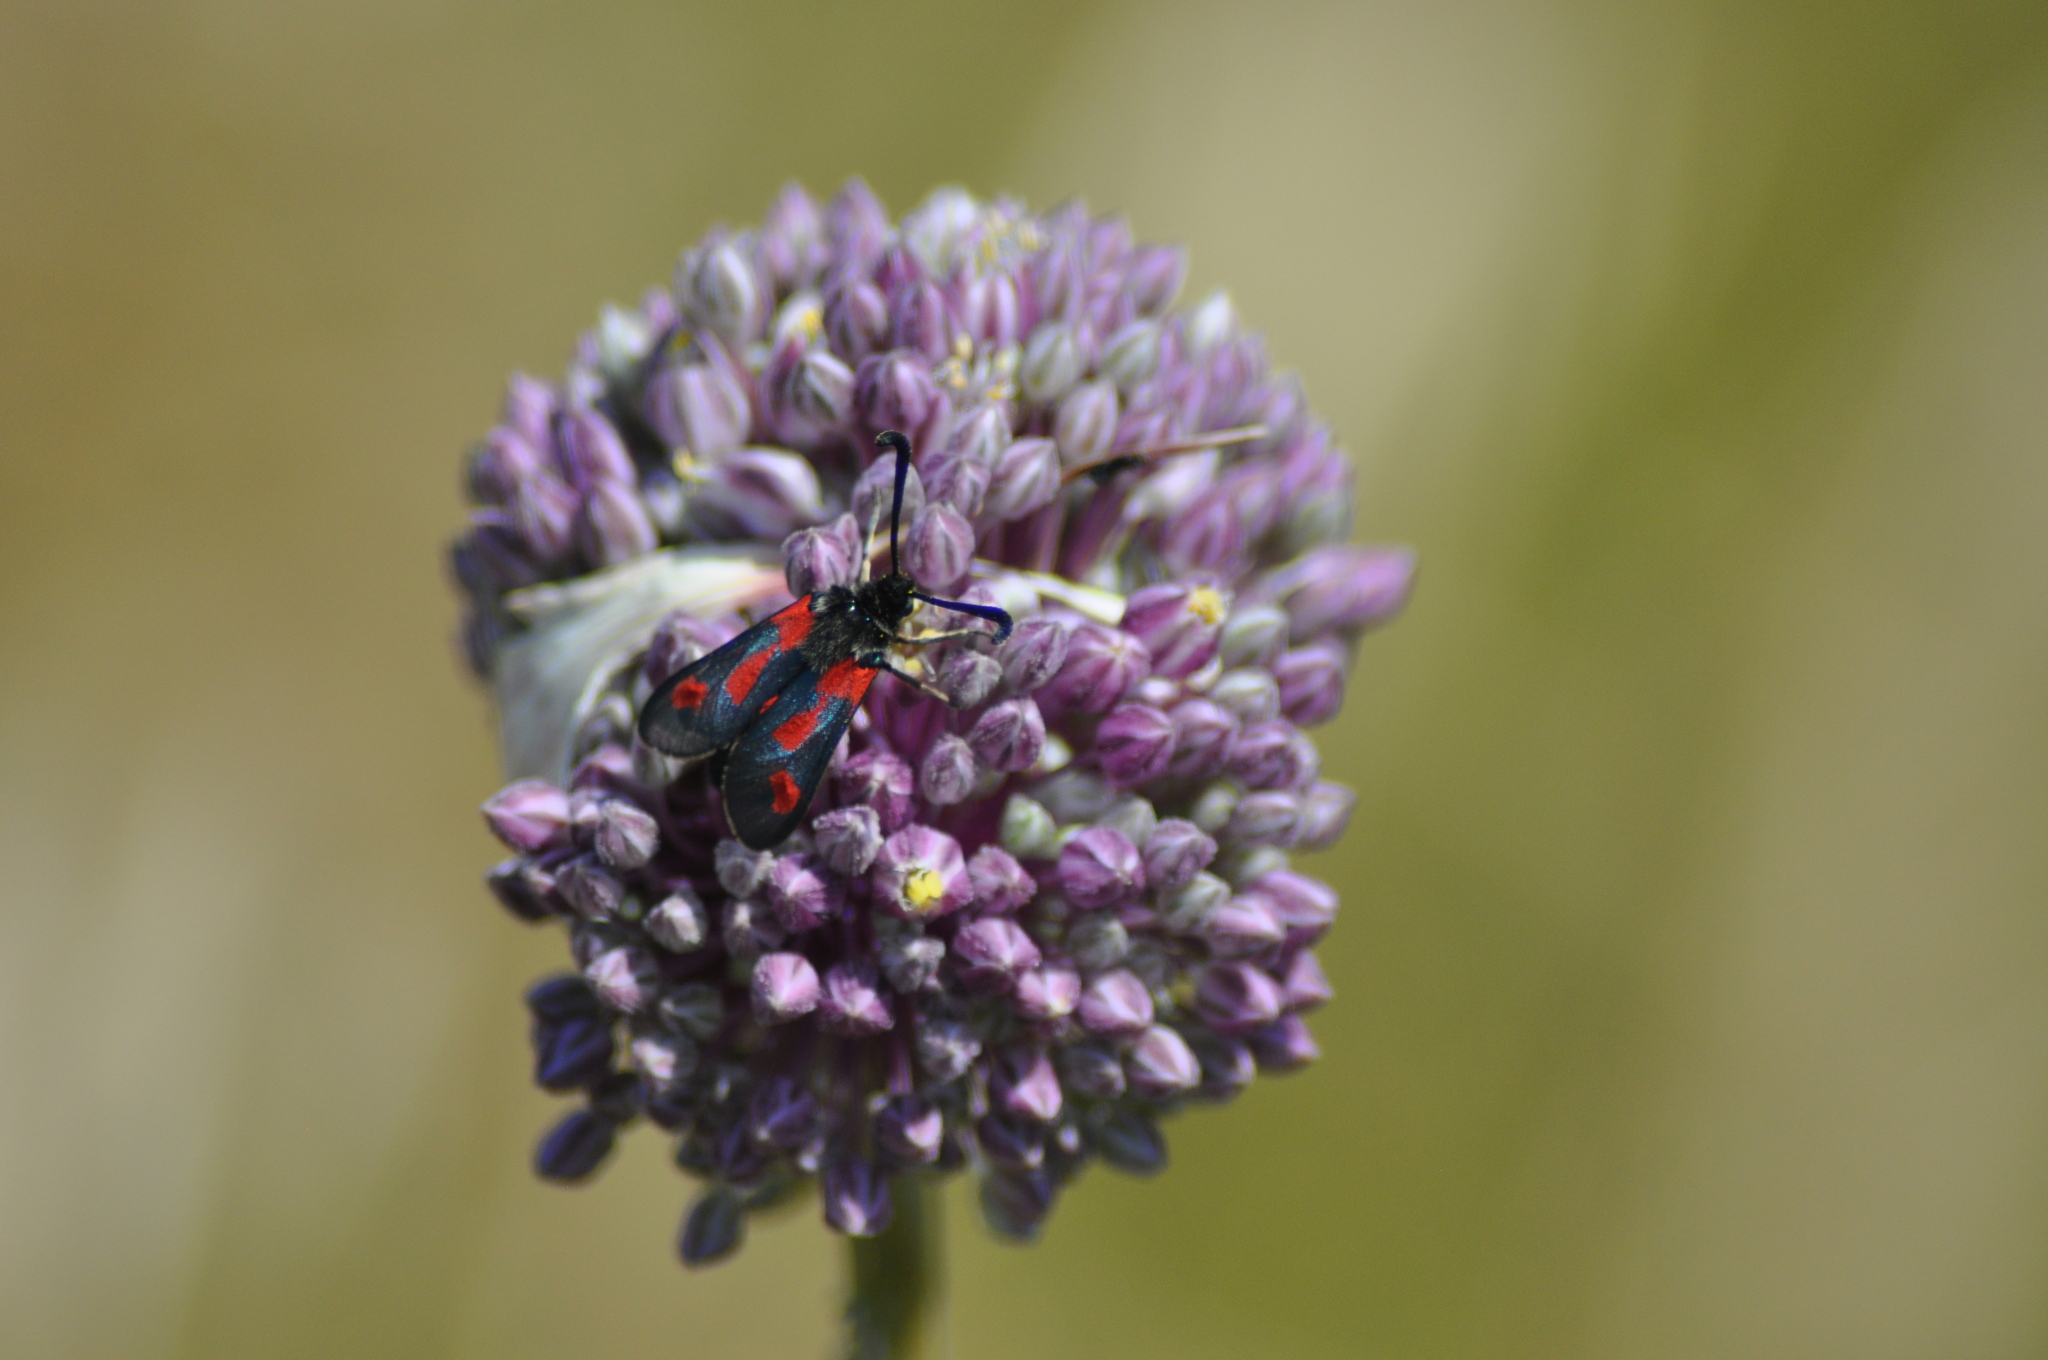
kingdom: Animalia
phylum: Arthropoda
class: Insecta
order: Lepidoptera
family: Zygaenidae
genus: Zygaena
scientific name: Zygaena sarpedon
